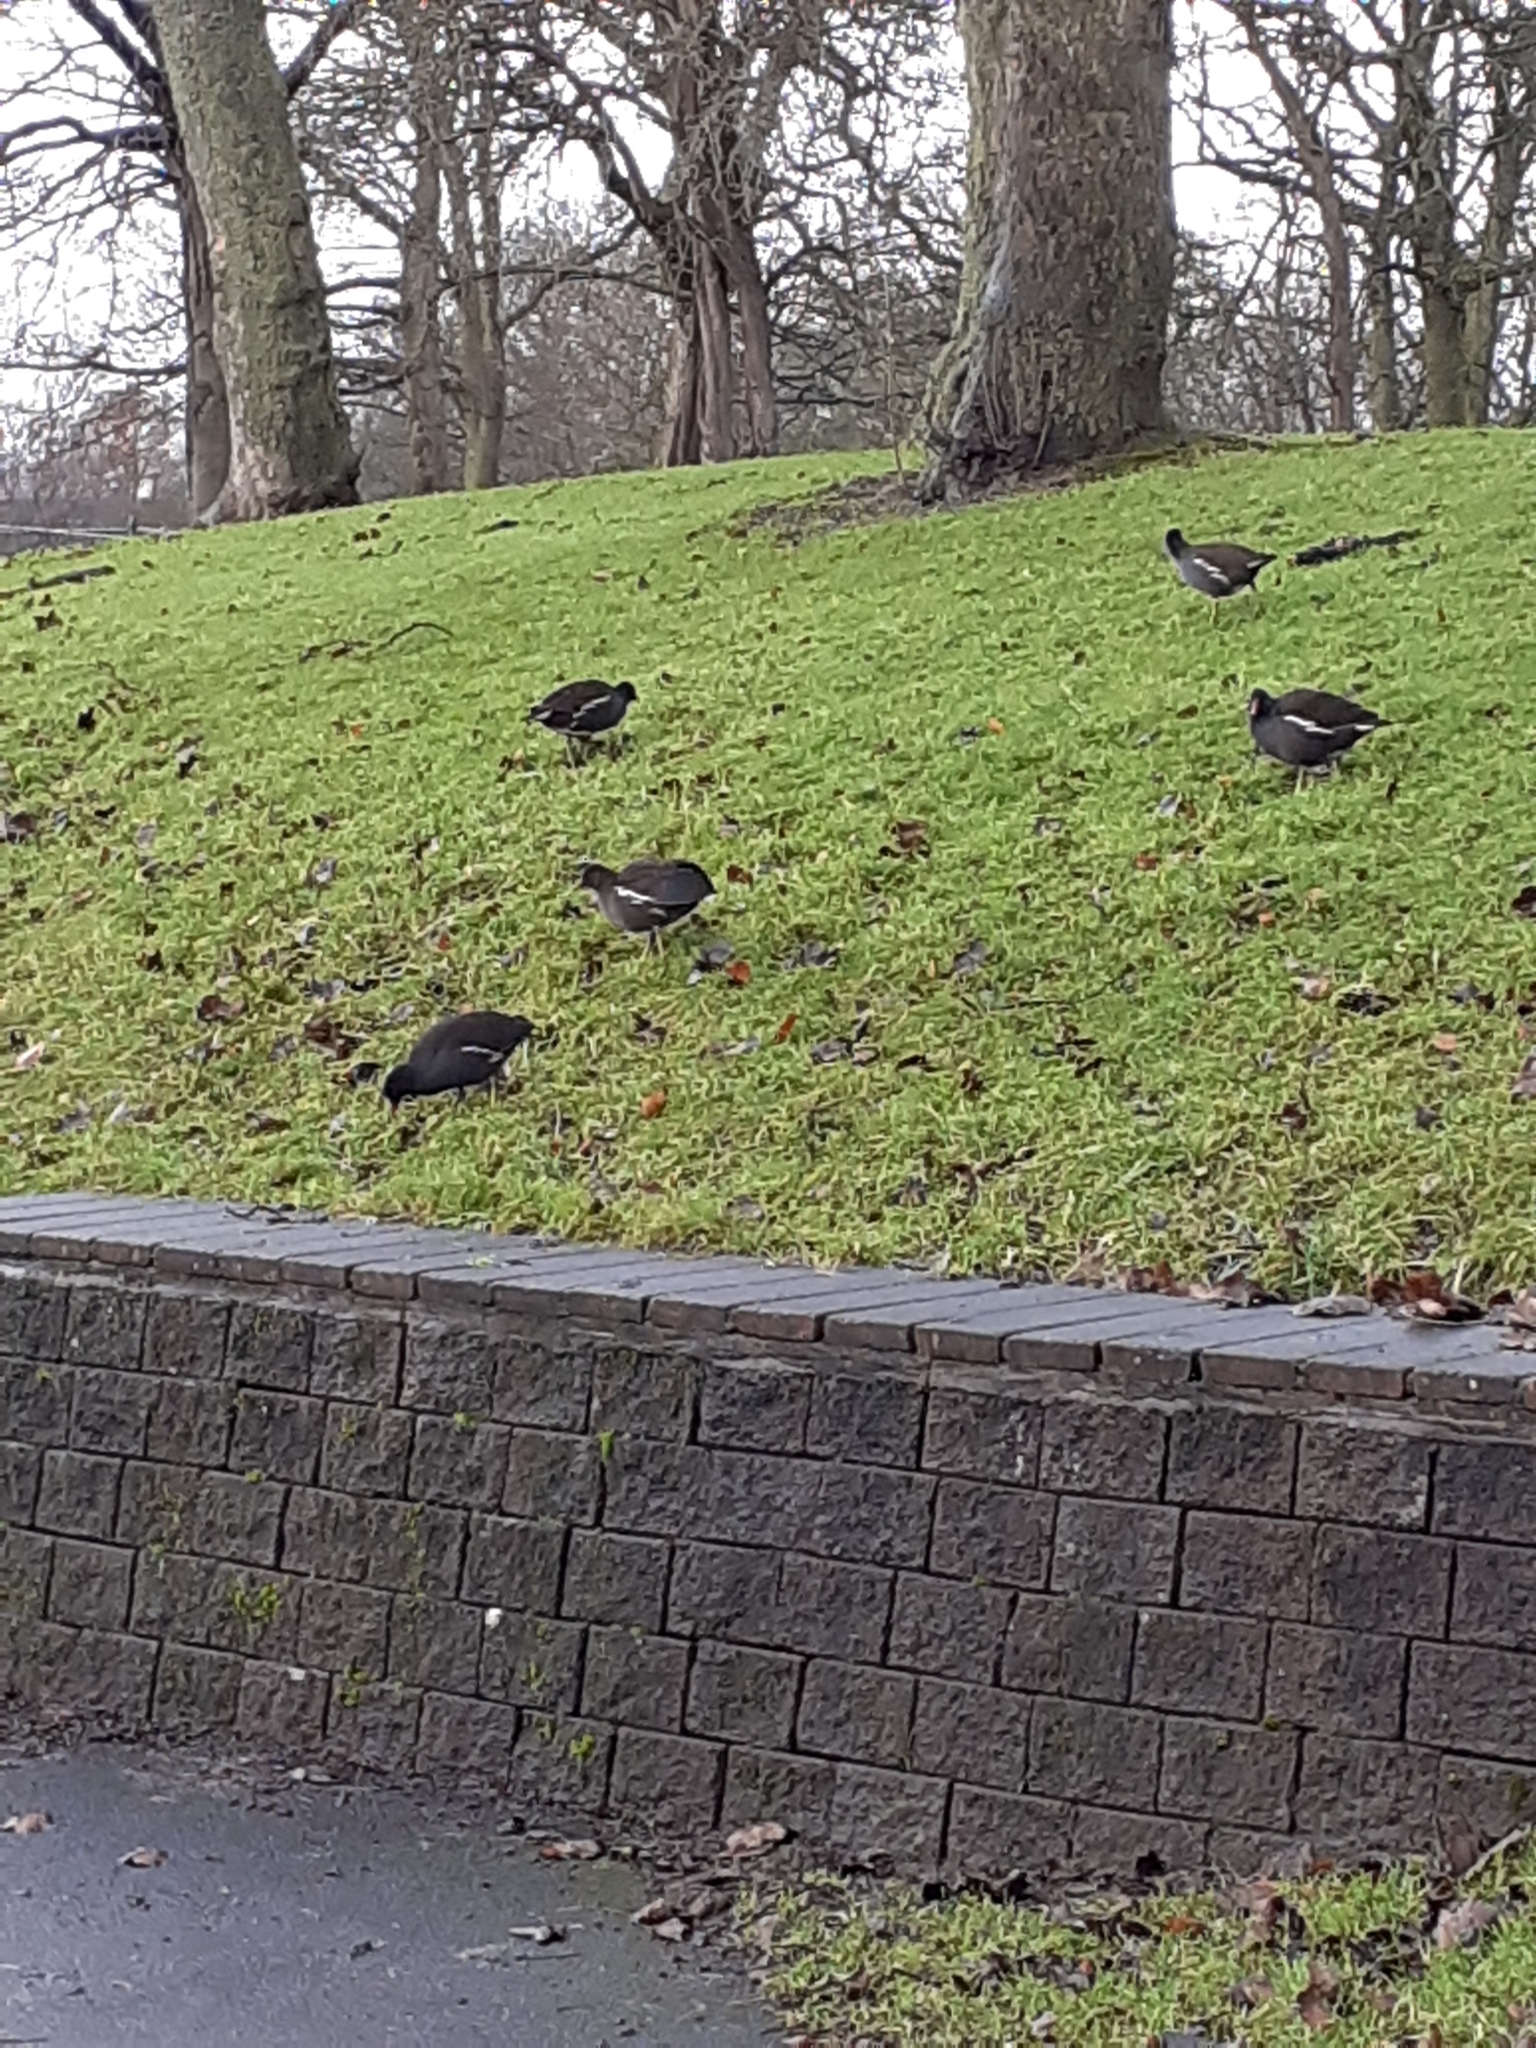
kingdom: Animalia
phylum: Chordata
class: Aves
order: Gruiformes
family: Rallidae
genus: Gallinula
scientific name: Gallinula chloropus
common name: Common moorhen
